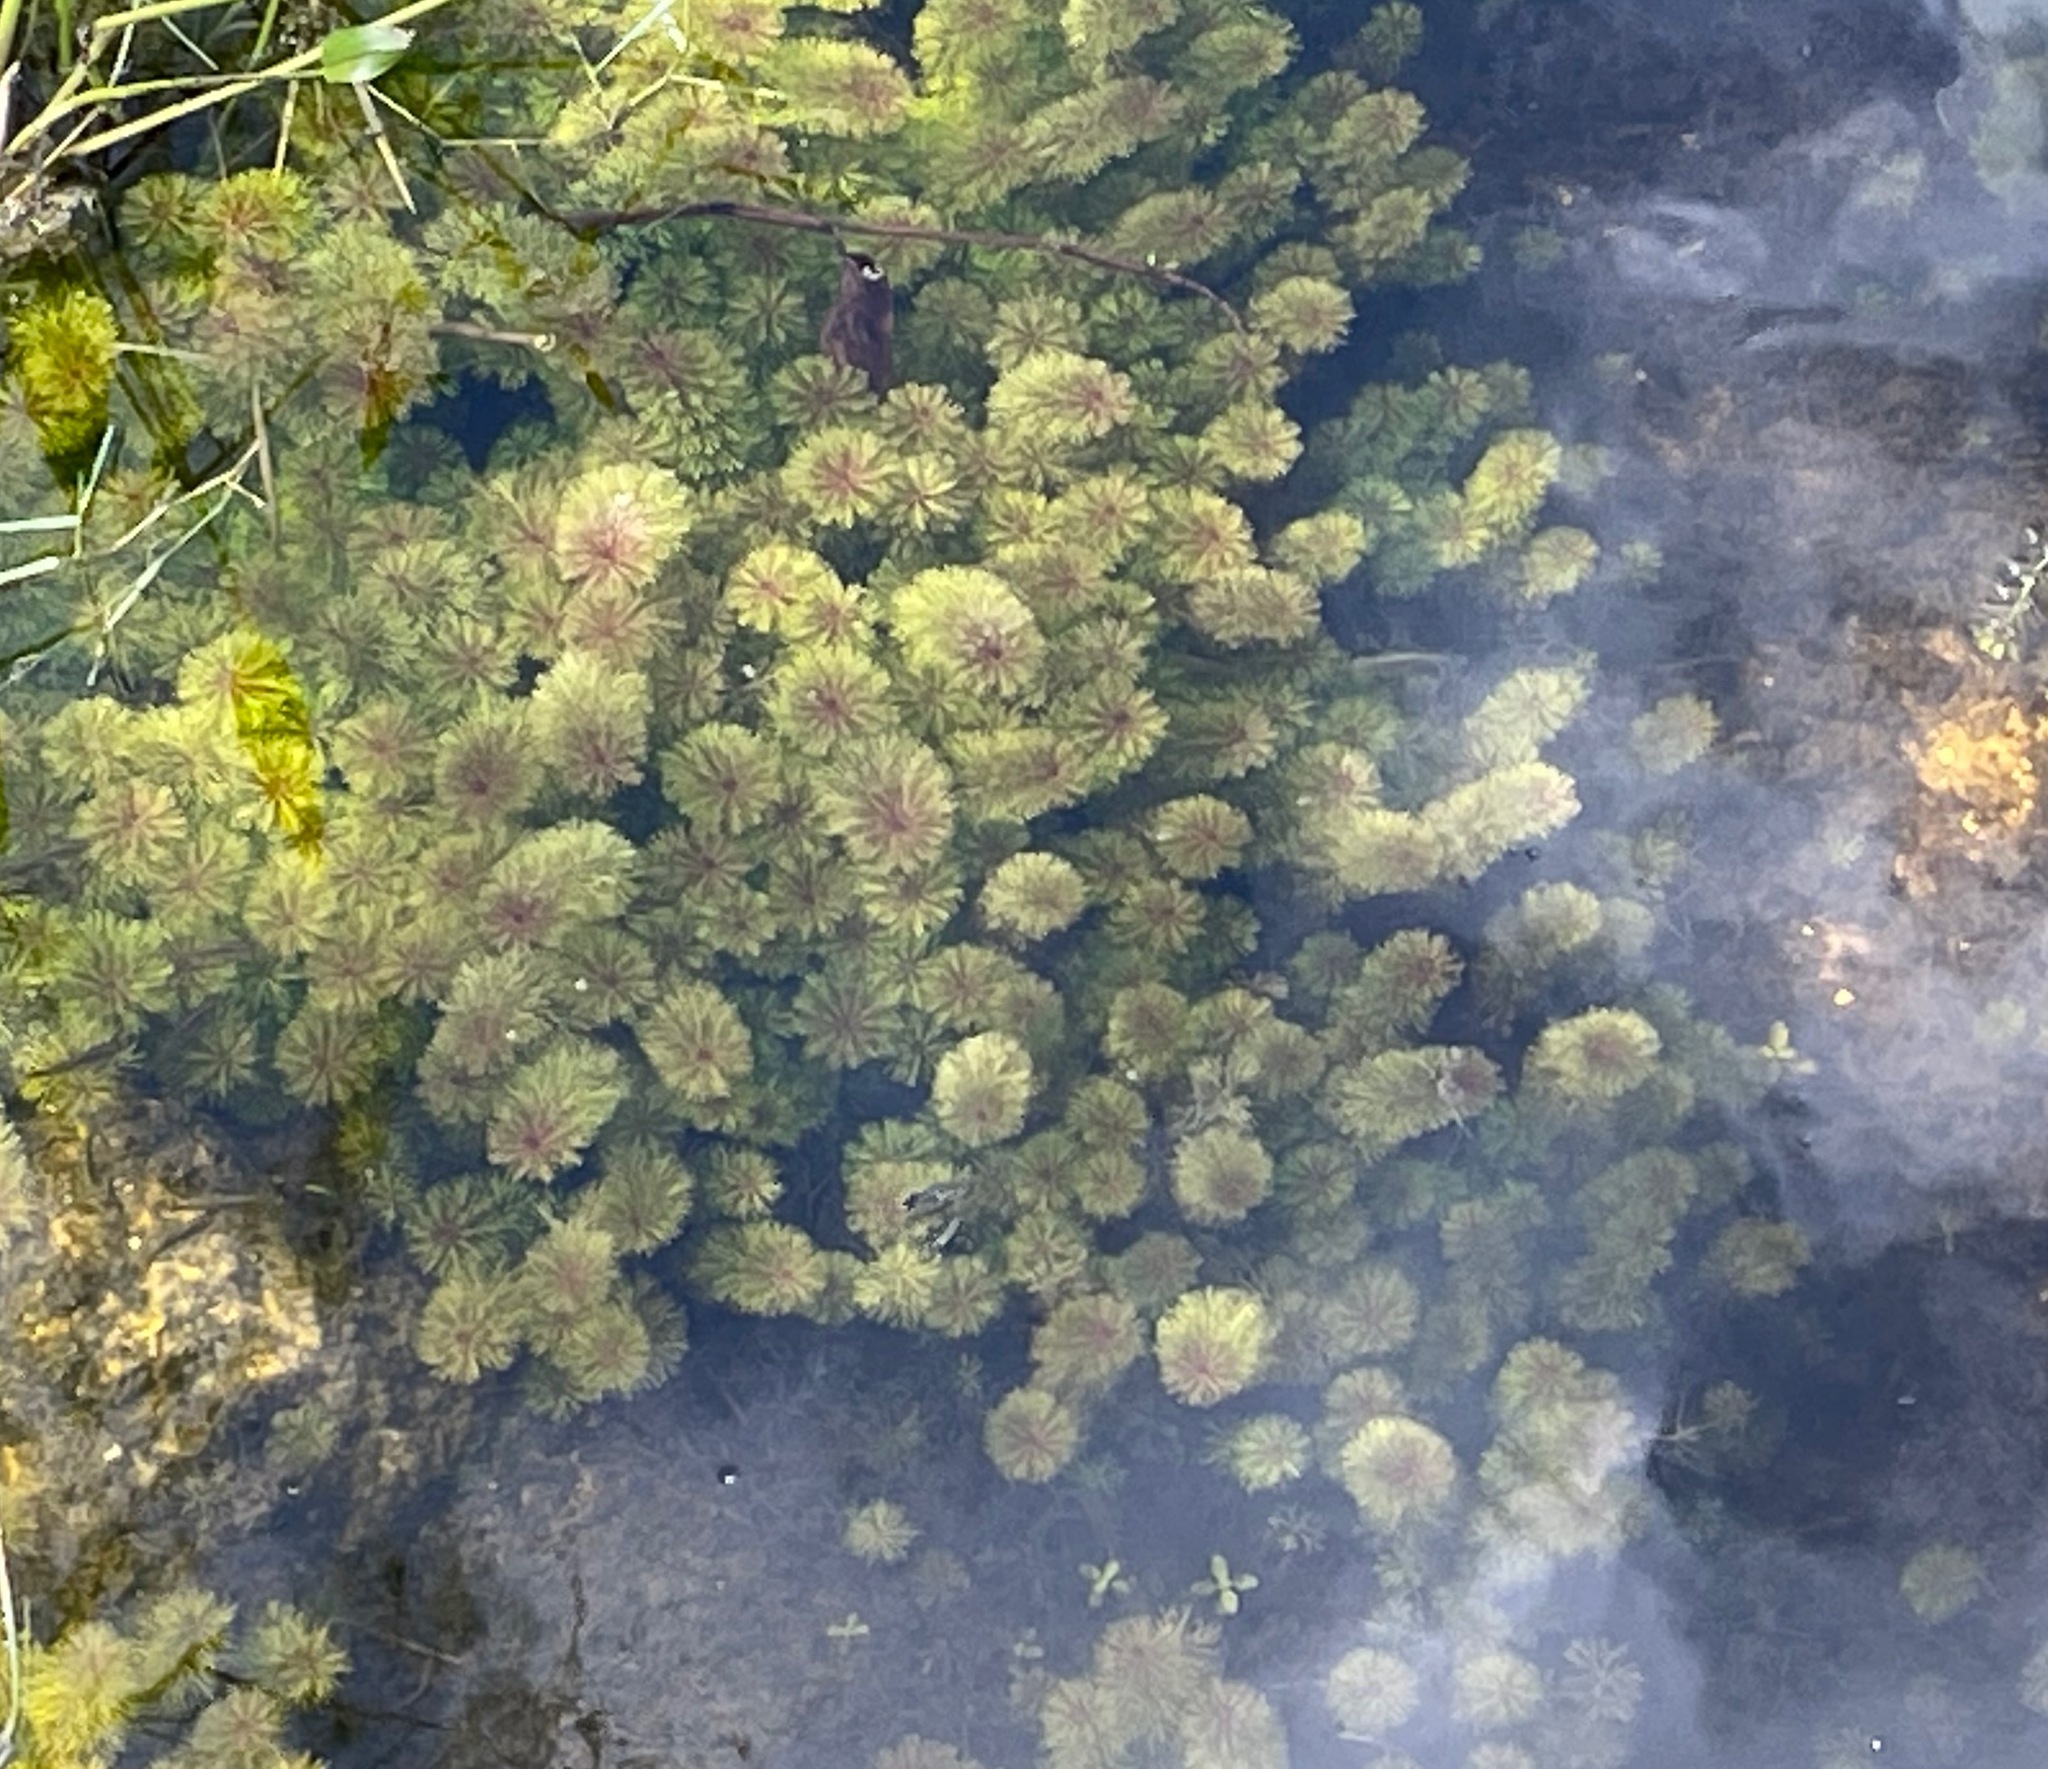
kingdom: Plantae
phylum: Tracheophyta
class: Magnoliopsida
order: Lamiales
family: Plantaginaceae
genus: Limnophila
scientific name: Limnophila sessiliflora
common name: Asian marshweed
